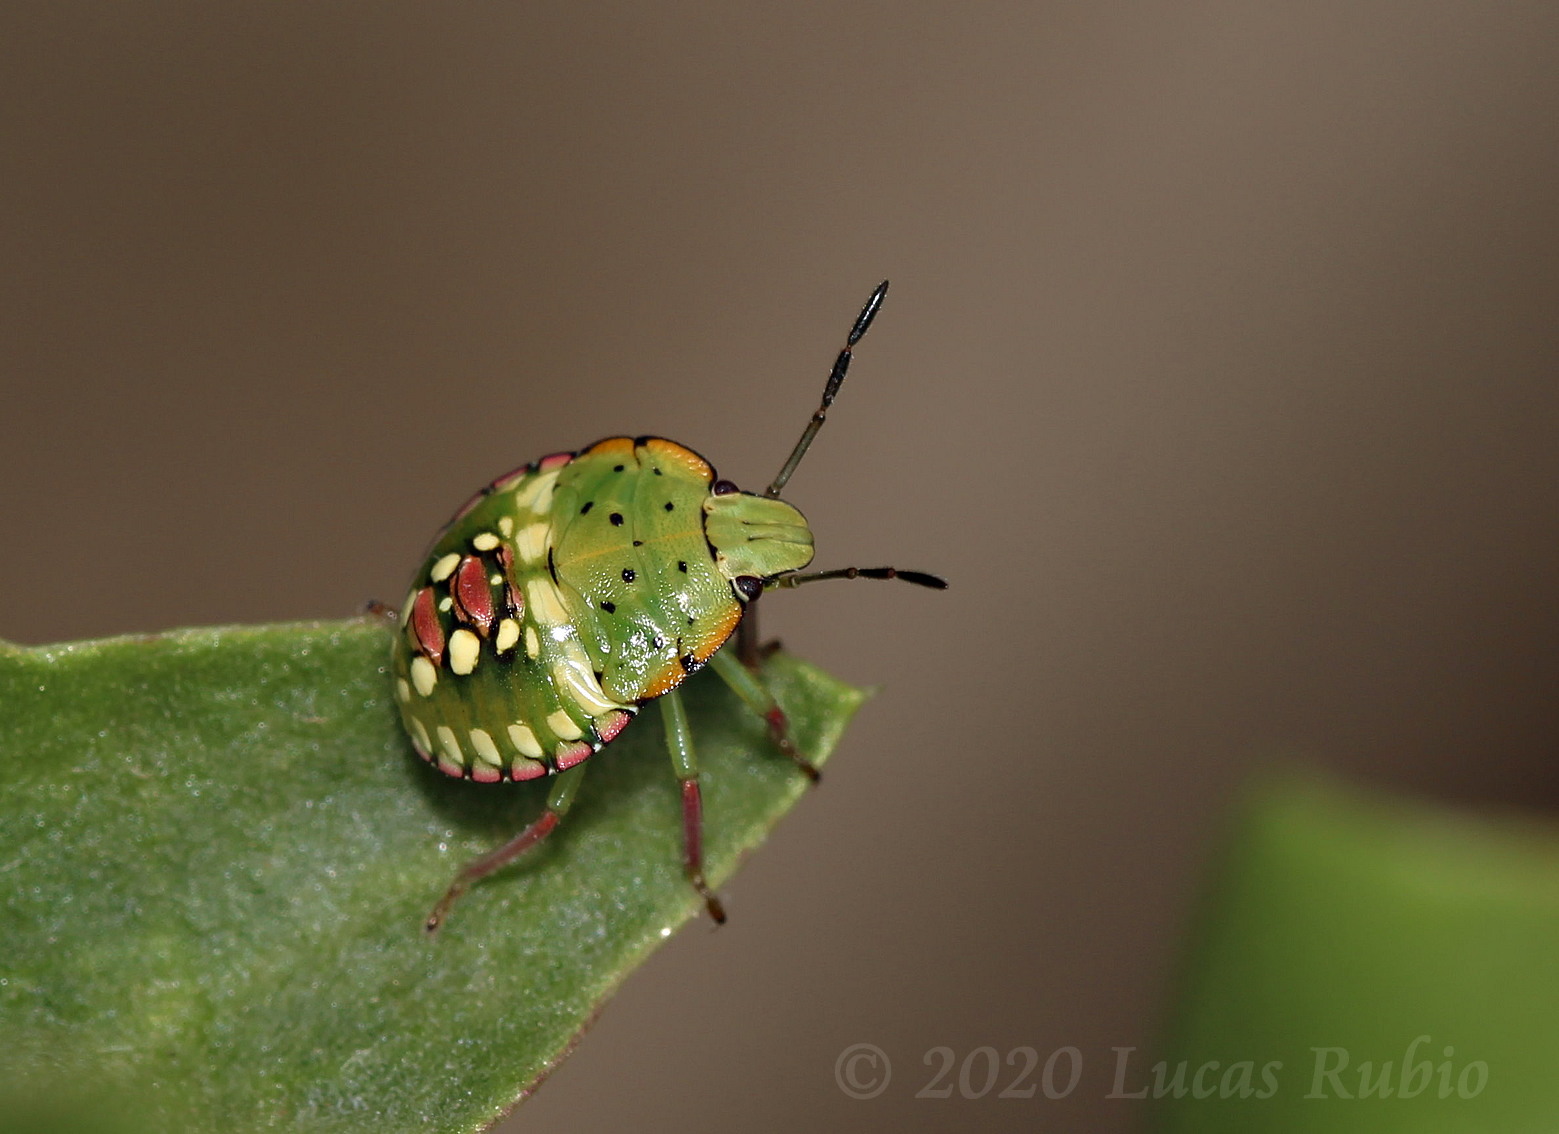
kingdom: Animalia
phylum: Arthropoda
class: Insecta
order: Hemiptera
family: Pentatomidae
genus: Nezara
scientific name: Nezara viridula
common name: Southern green stink bug
